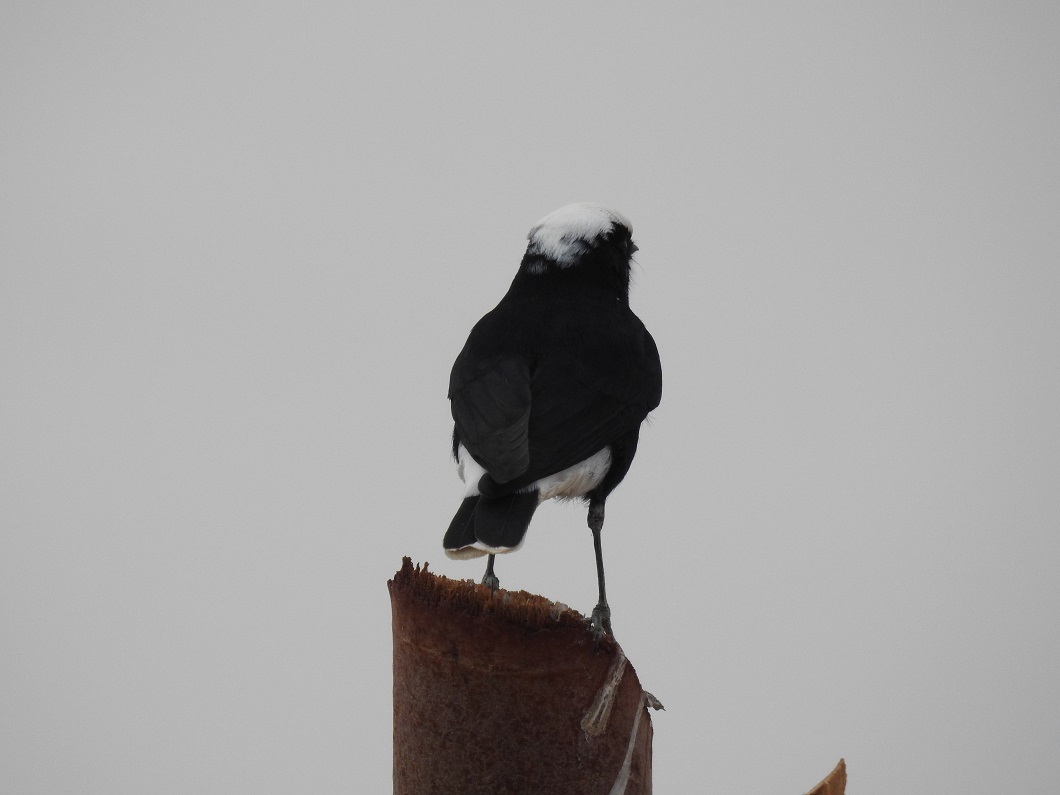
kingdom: Animalia
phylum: Chordata
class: Aves
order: Passeriformes
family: Muscicapidae
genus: Oenanthe
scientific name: Oenanthe leucopyga
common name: White-crowned wheatear
